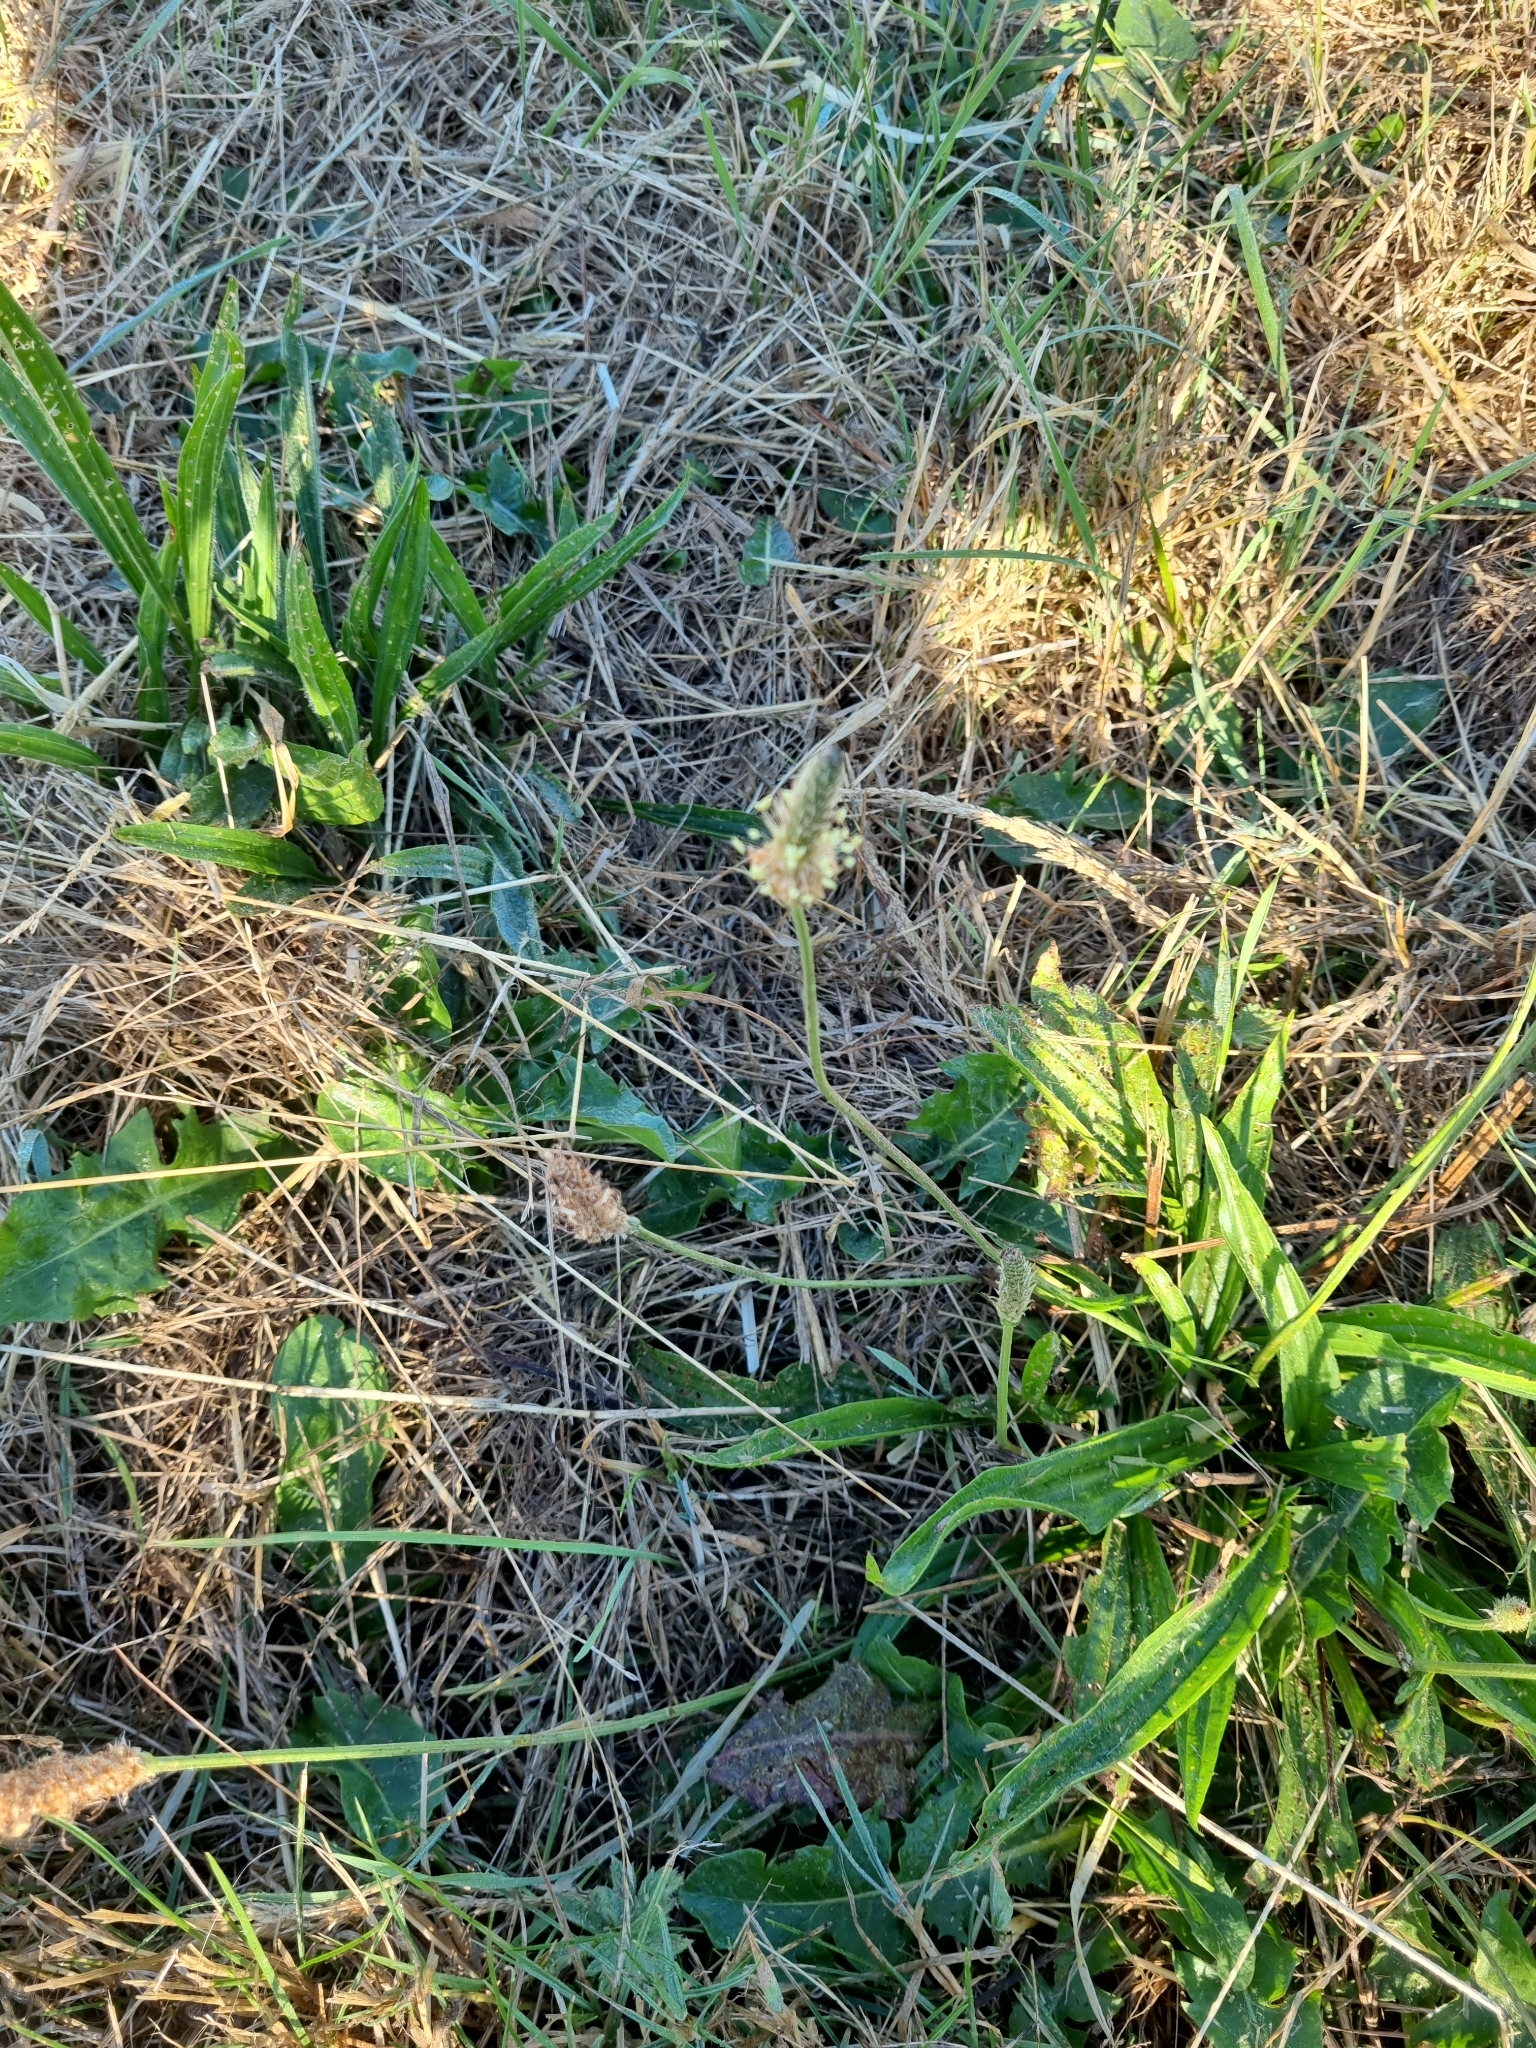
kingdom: Plantae
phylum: Tracheophyta
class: Magnoliopsida
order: Lamiales
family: Plantaginaceae
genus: Plantago
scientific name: Plantago lanceolata
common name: Ribwort plantain
